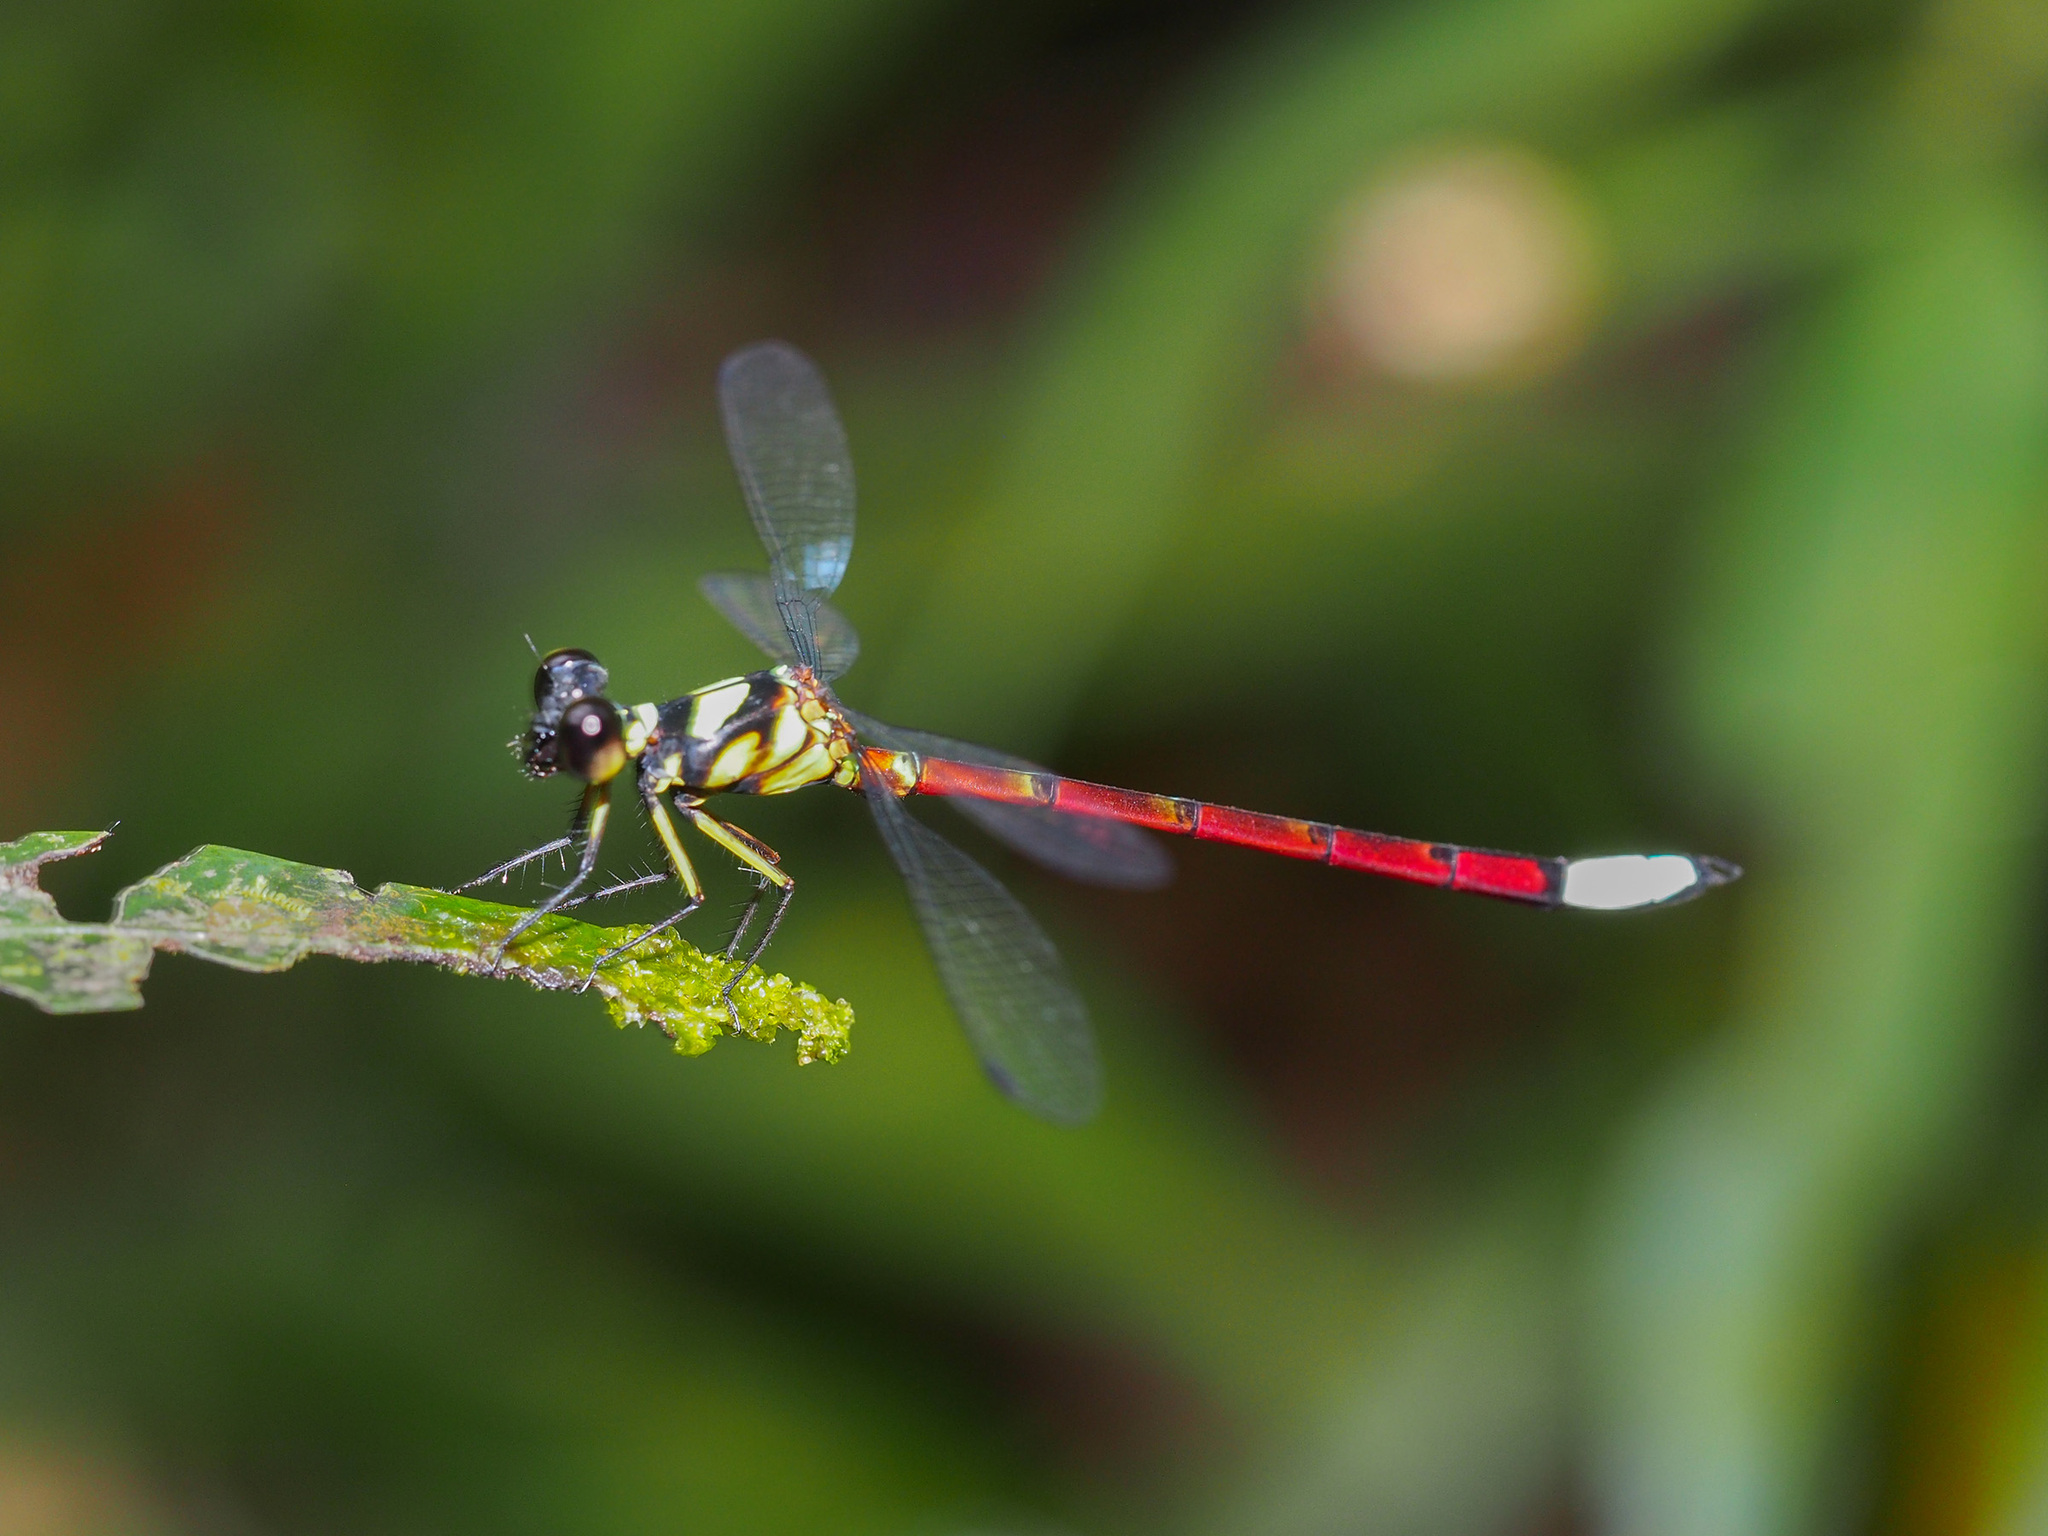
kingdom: Animalia
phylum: Arthropoda
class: Insecta
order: Odonata
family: Philosinidae
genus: Rhinagrion
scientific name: Rhinagrion borneense
